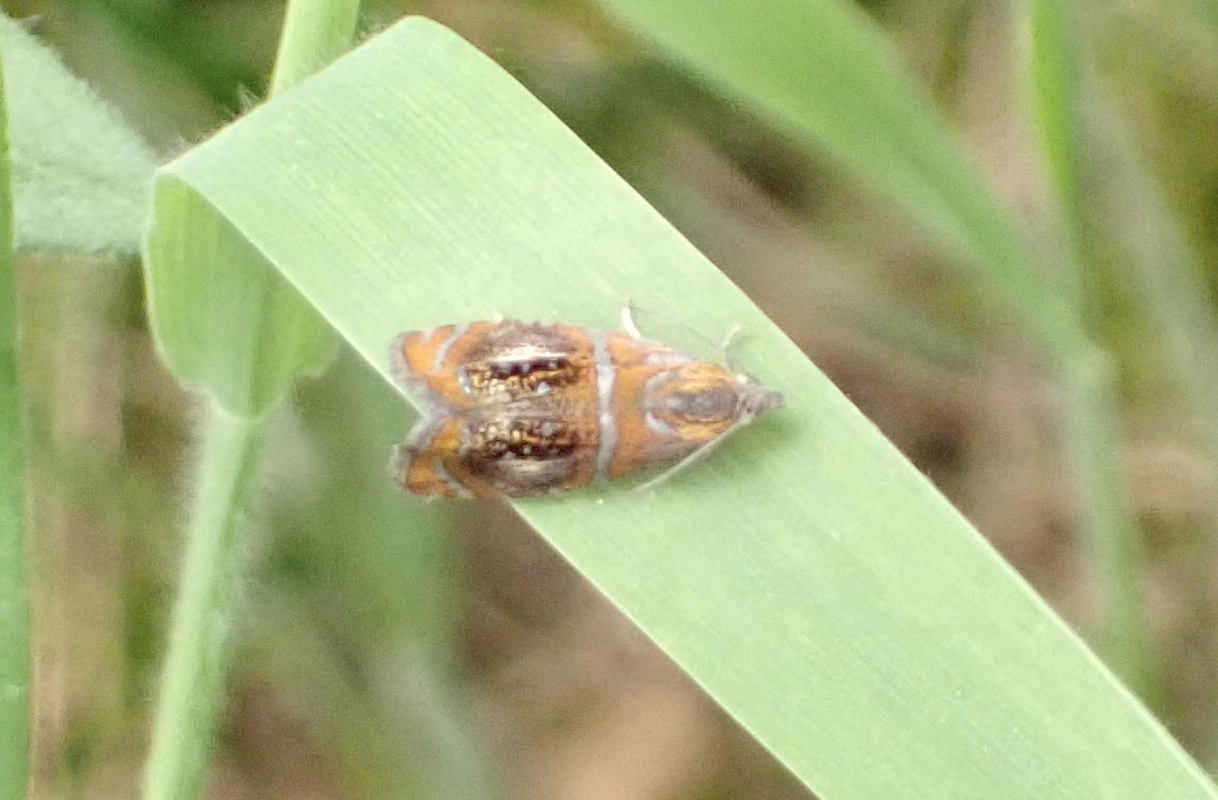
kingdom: Animalia
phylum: Arthropoda
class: Insecta
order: Lepidoptera
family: Tortricidae
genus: Olethreutes
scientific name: Olethreutes arcuella
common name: Arched marble
